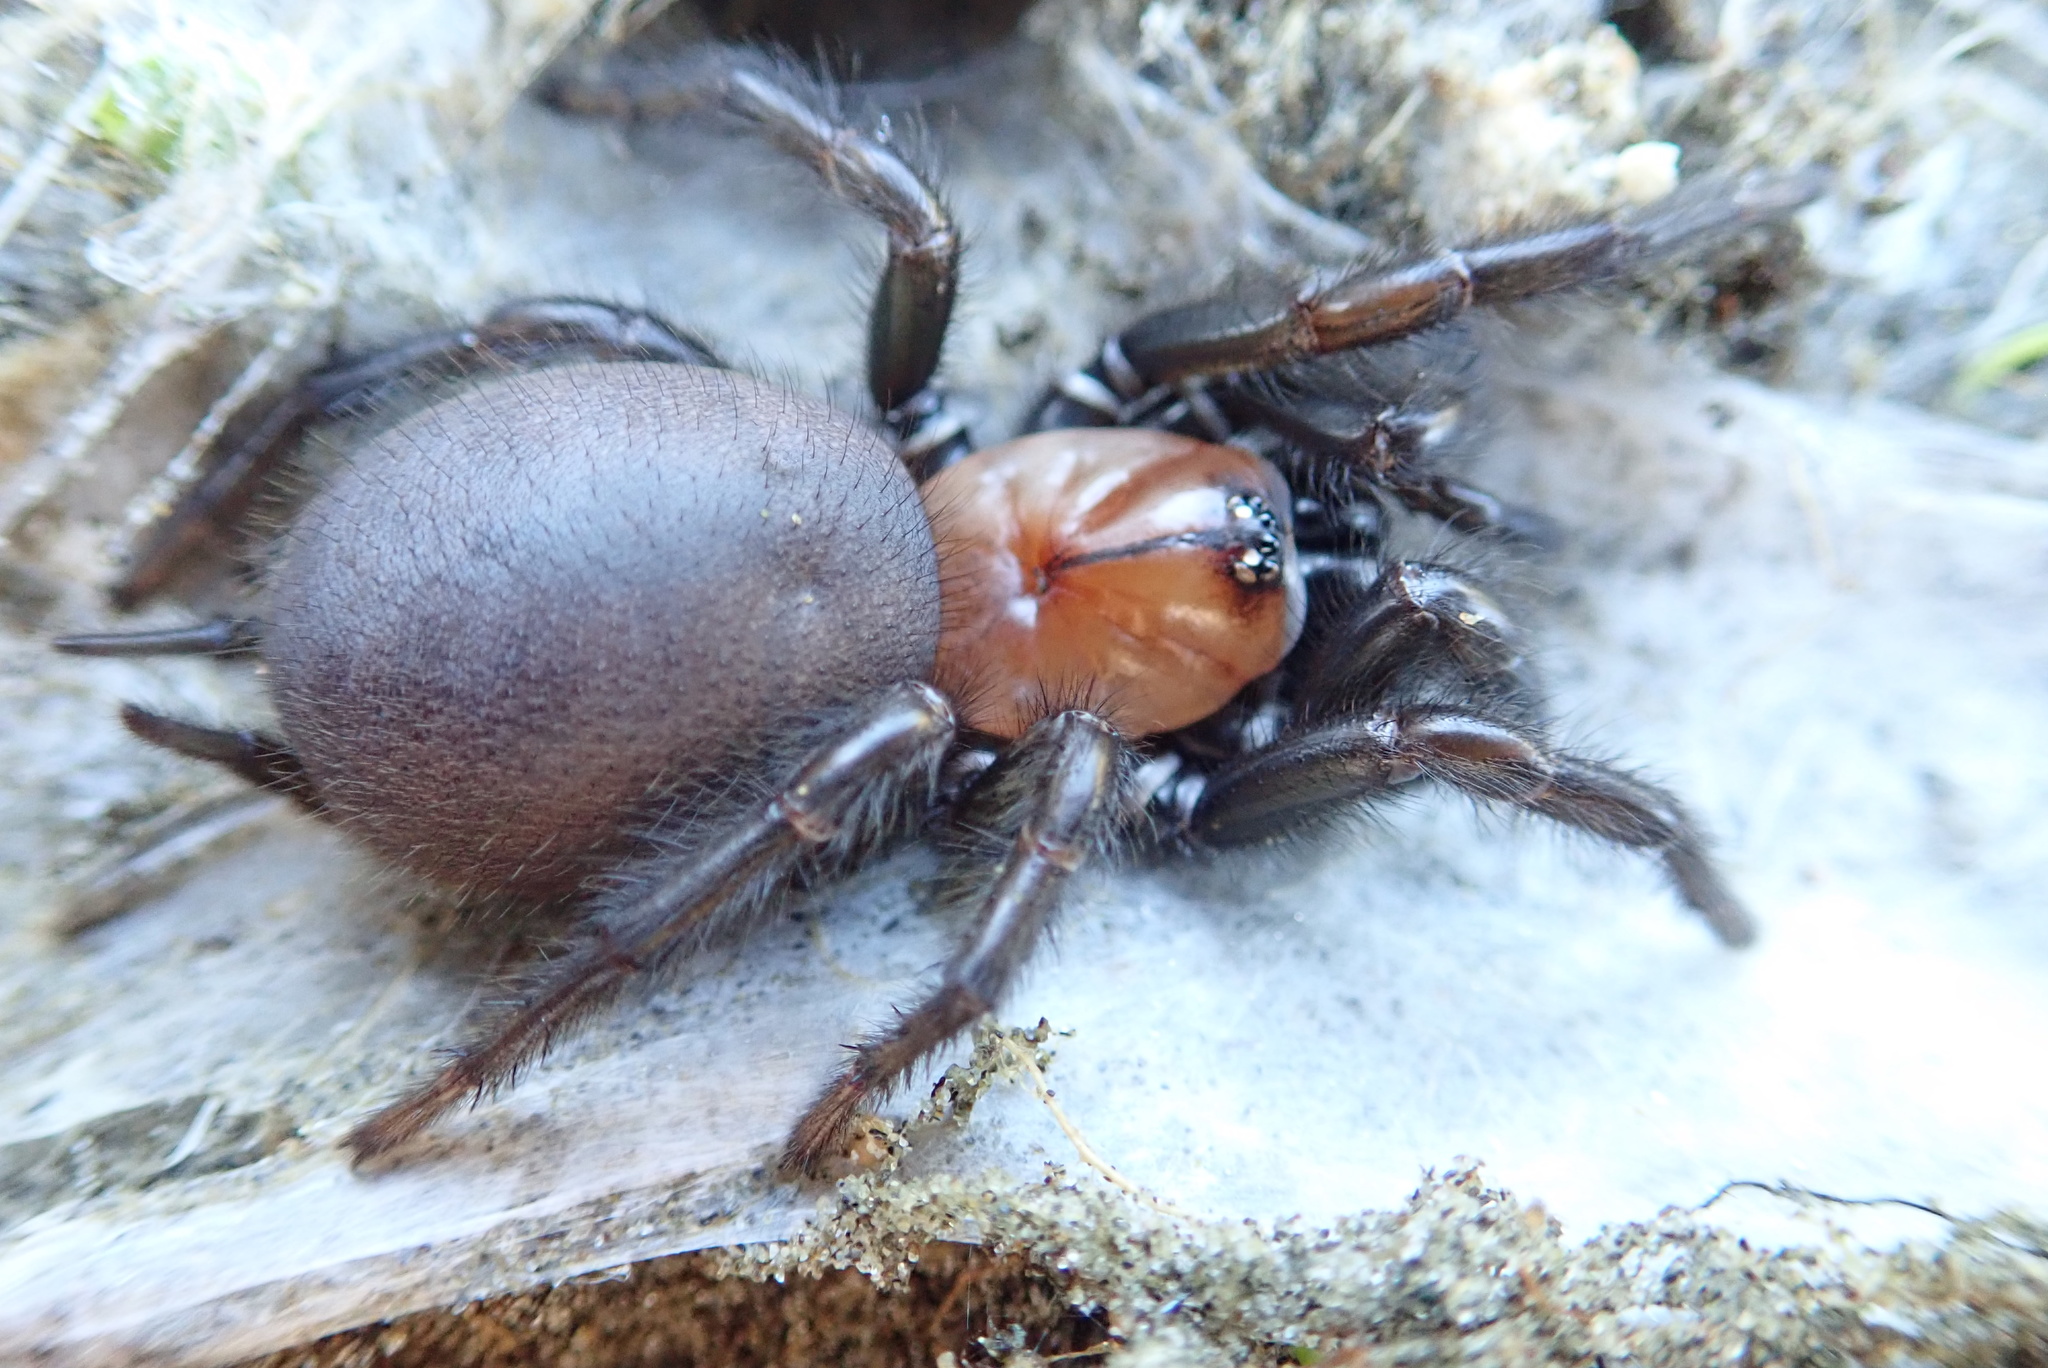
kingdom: Animalia
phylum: Arthropoda
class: Arachnida
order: Araneae
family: Porrhothelidae
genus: Porrhothele
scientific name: Porrhothele antipodiana
